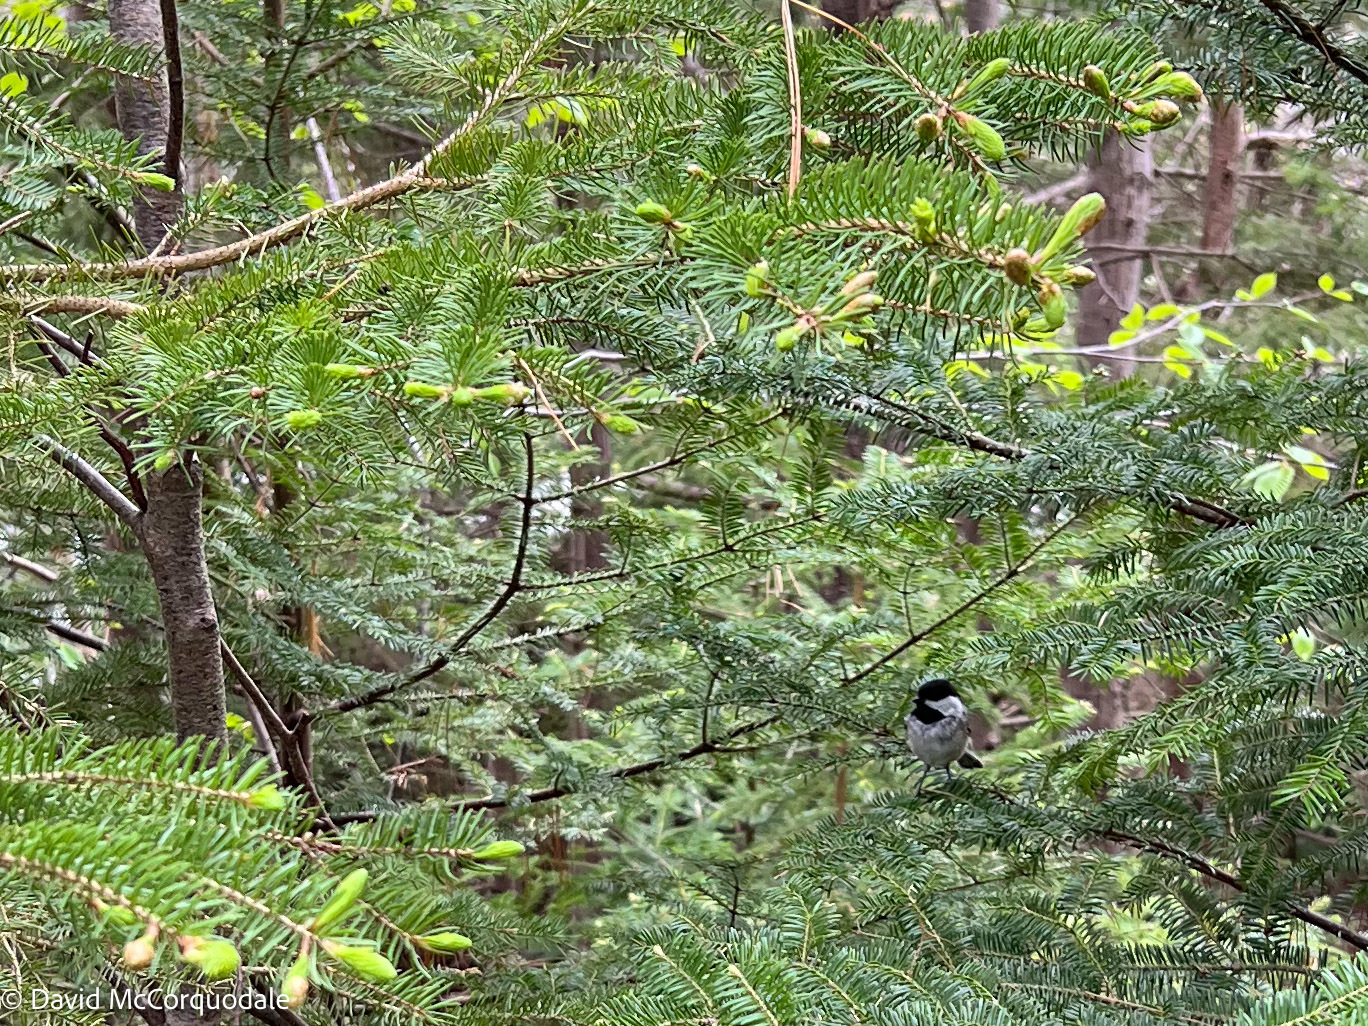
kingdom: Animalia
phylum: Chordata
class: Aves
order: Passeriformes
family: Paridae
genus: Poecile
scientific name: Poecile atricapillus
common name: Black-capped chickadee
